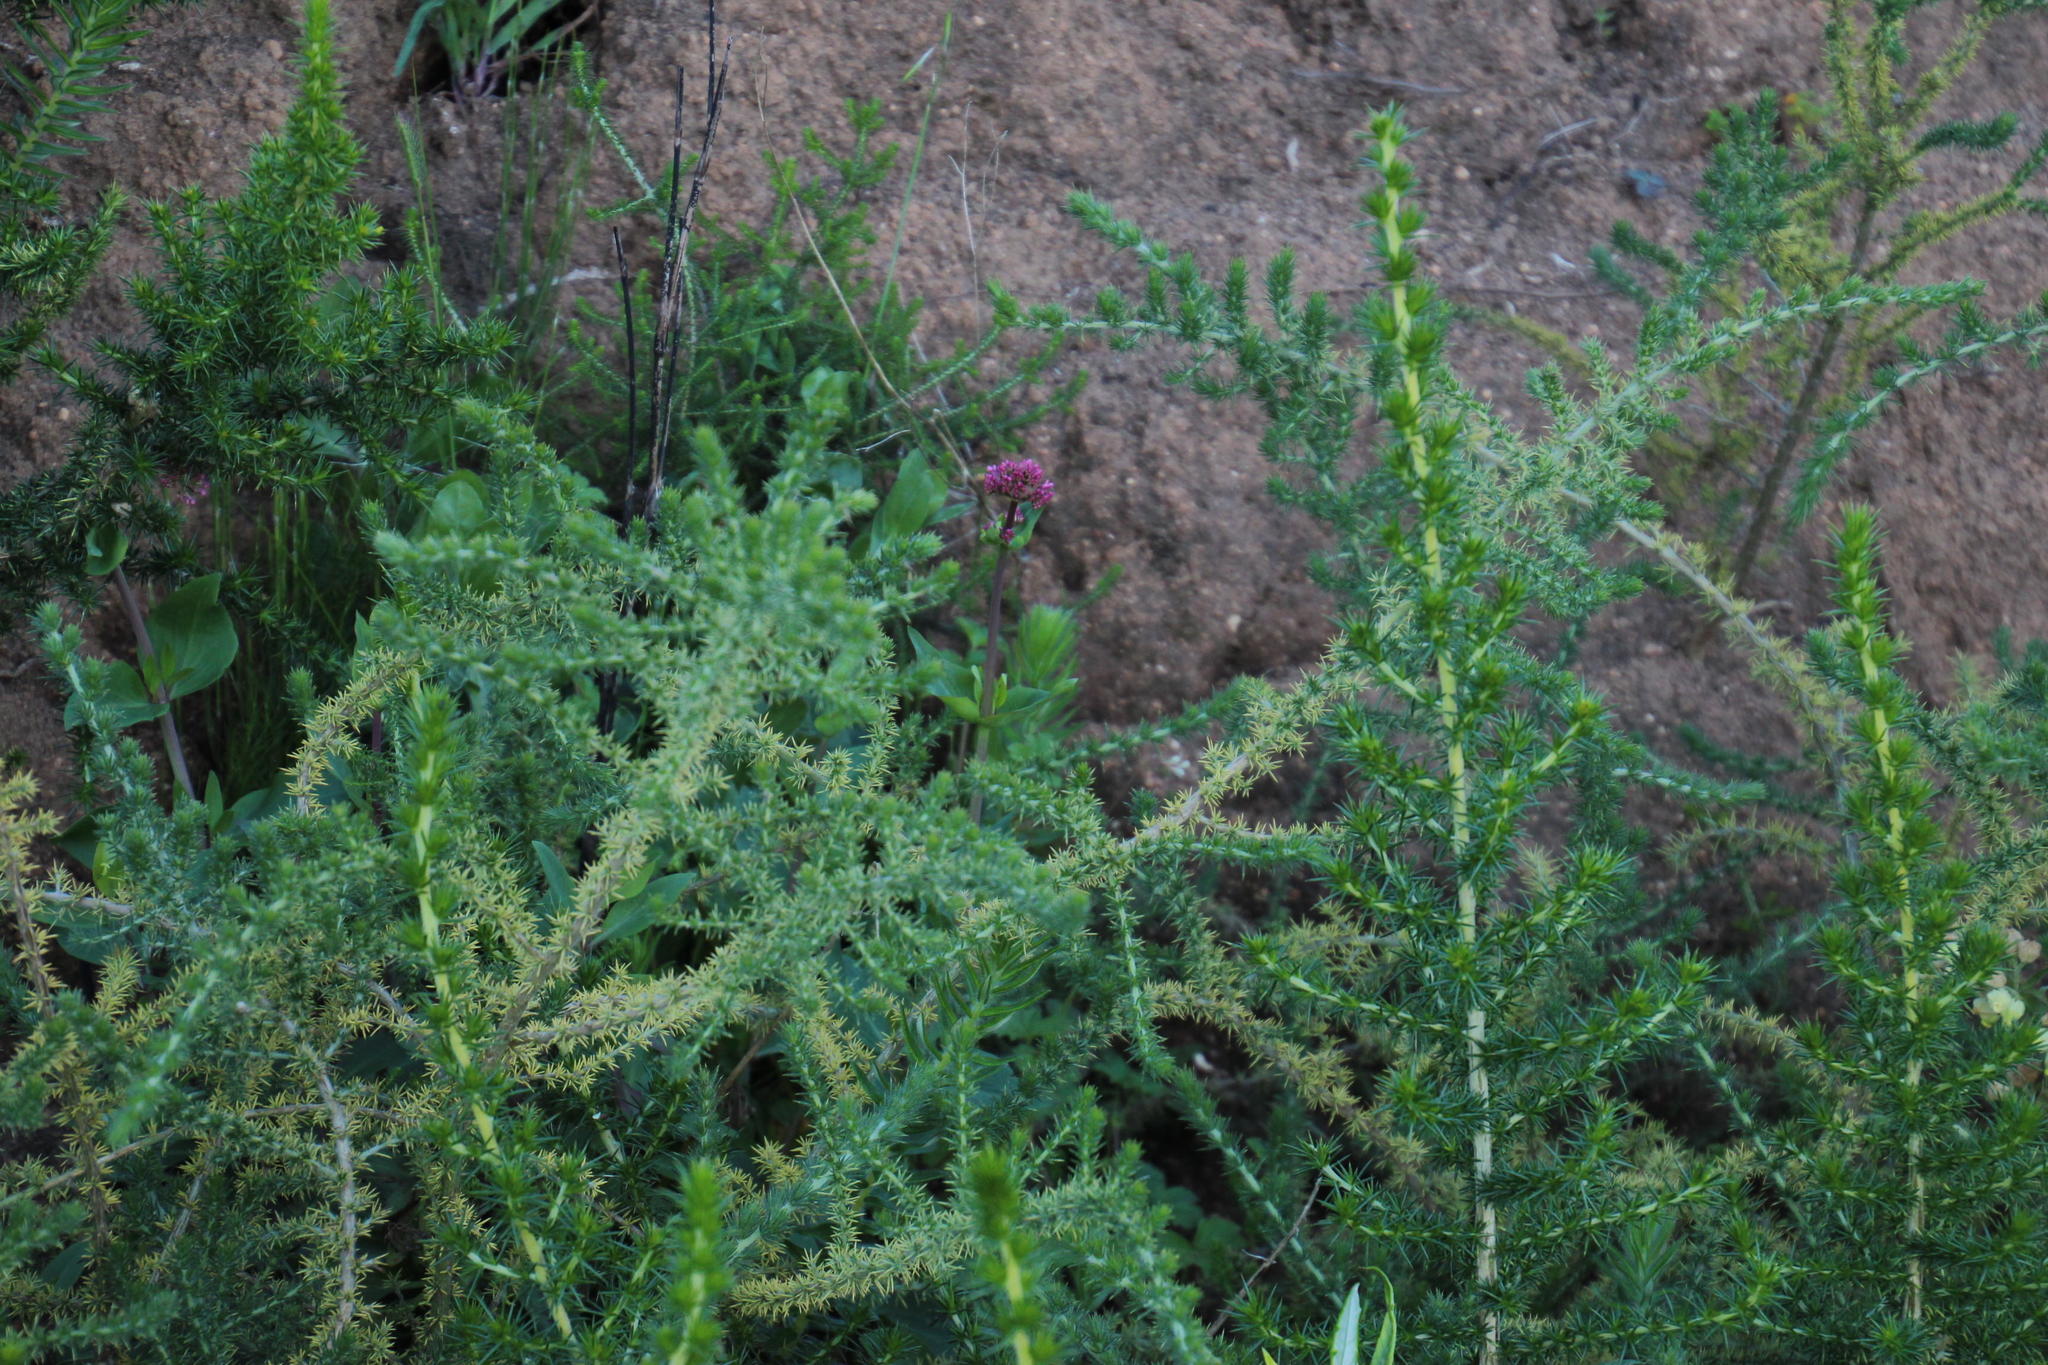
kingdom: Plantae
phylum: Tracheophyta
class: Magnoliopsida
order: Dipsacales
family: Caprifoliaceae
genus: Centranthus
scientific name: Centranthus ruber
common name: Red valerian
